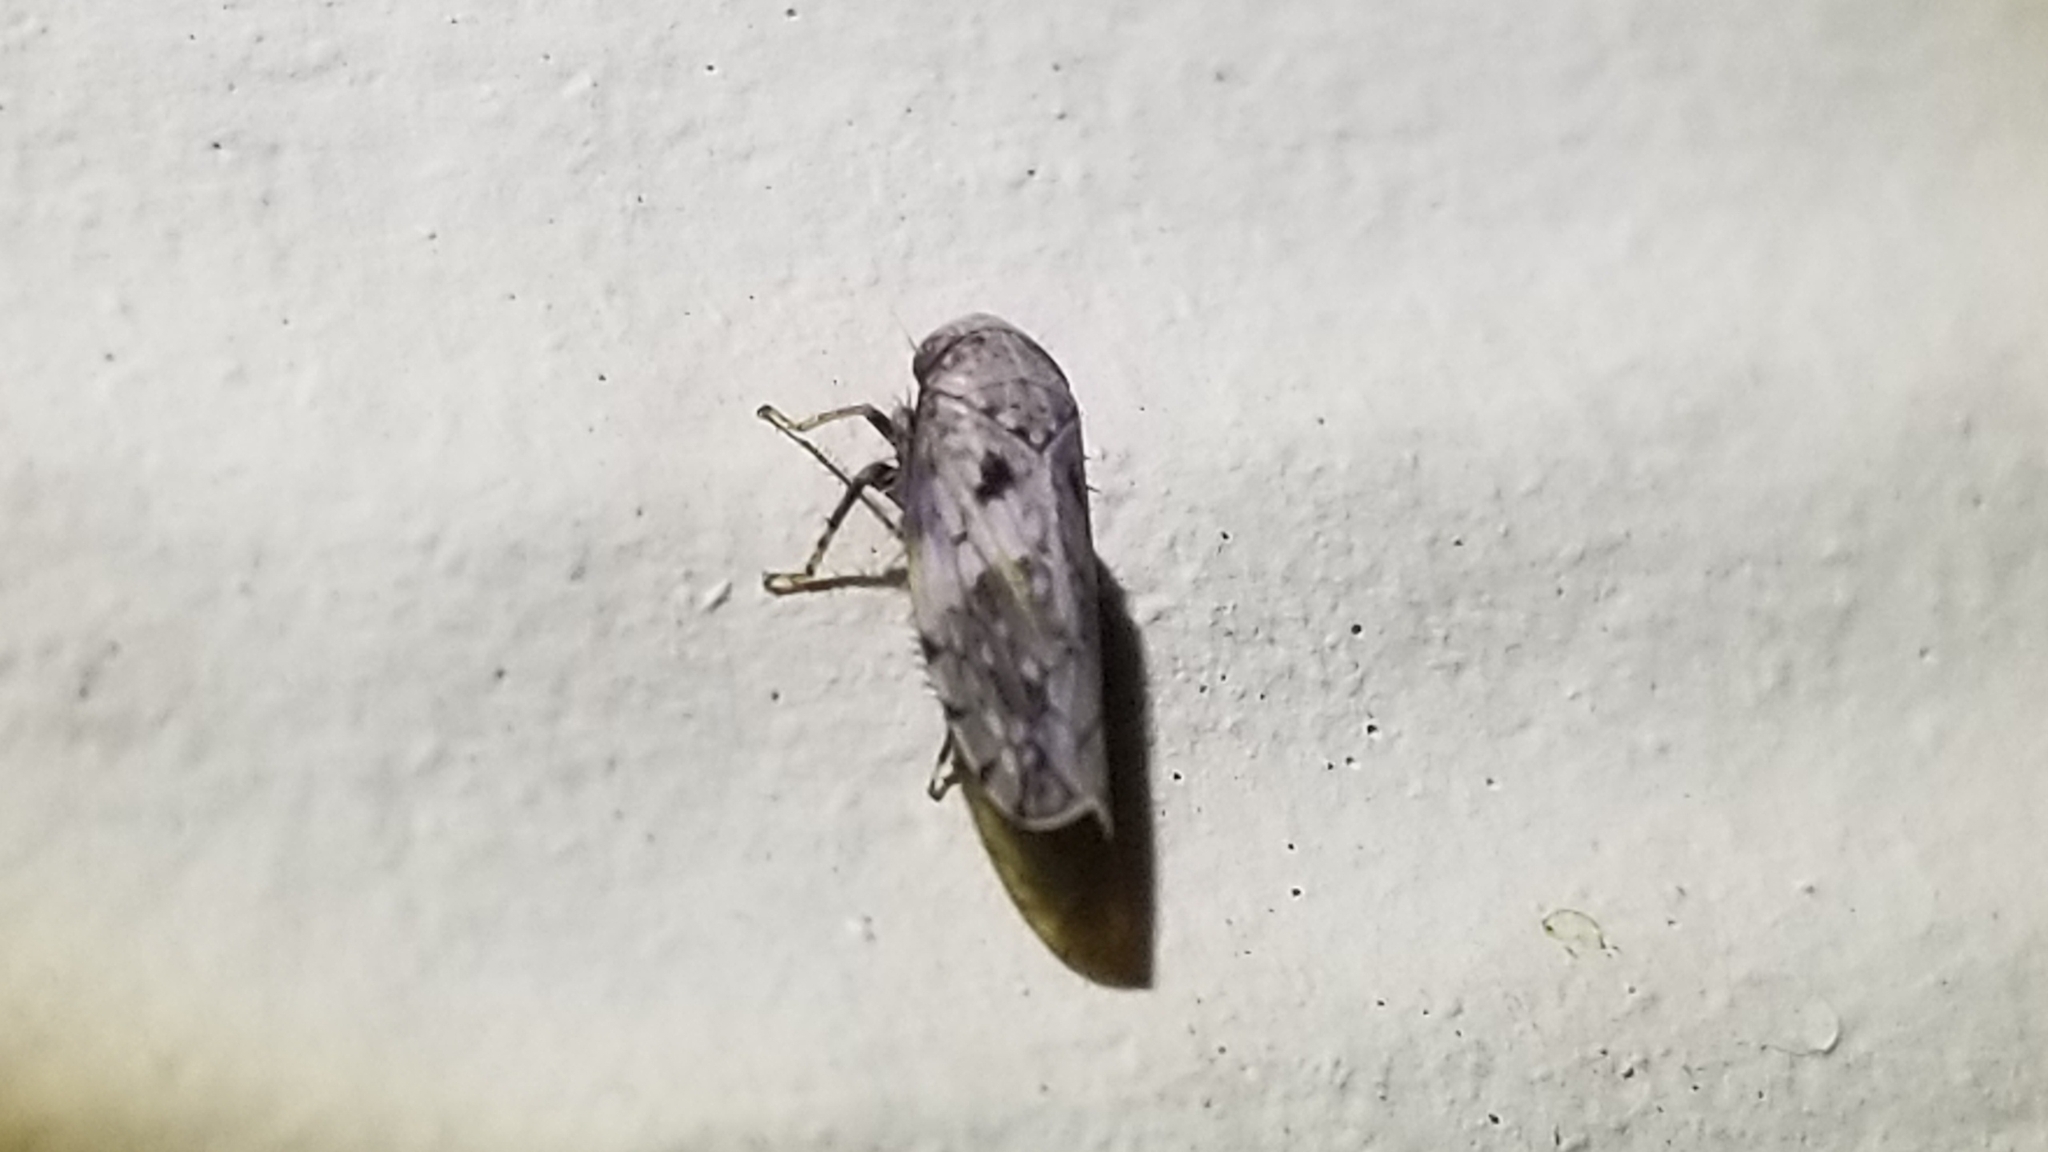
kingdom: Animalia
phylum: Arthropoda
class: Insecta
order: Hemiptera
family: Cicadellidae
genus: Menosoma
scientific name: Menosoma cinctum
